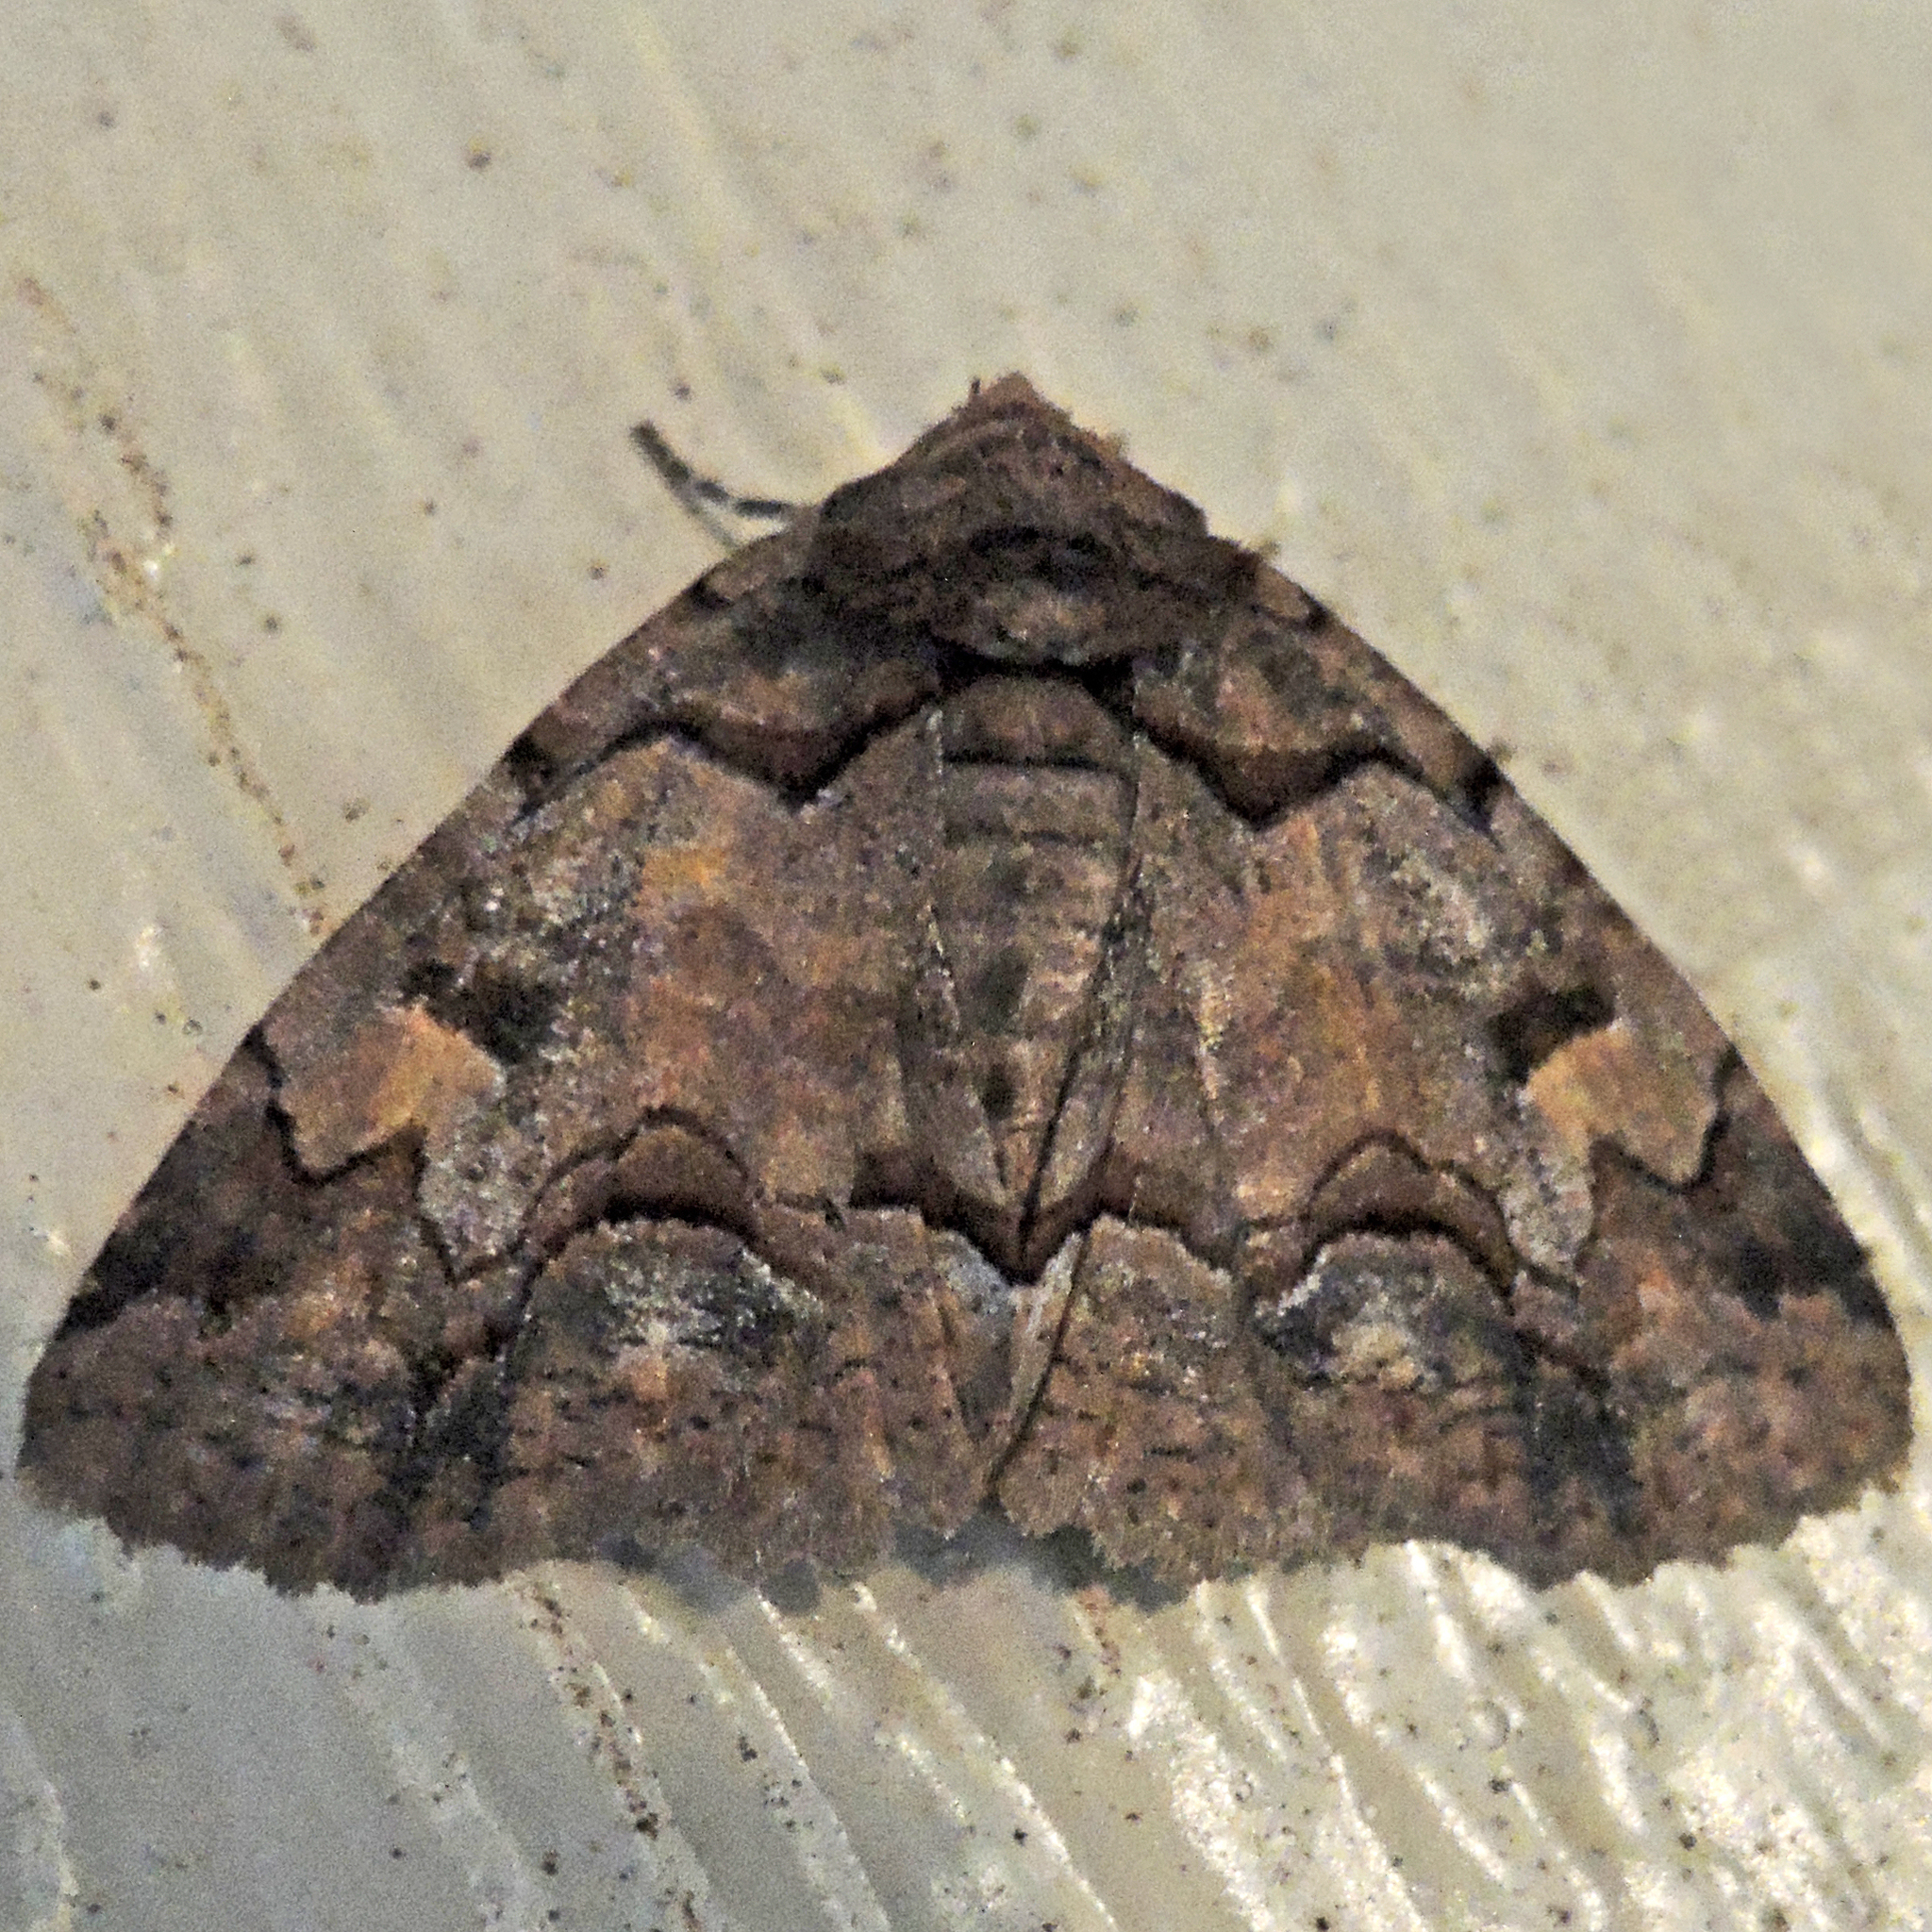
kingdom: Animalia
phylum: Arthropoda
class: Insecta
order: Lepidoptera
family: Erebidae
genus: Zale
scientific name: Zale helata
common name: Brown-spotted zale moth
